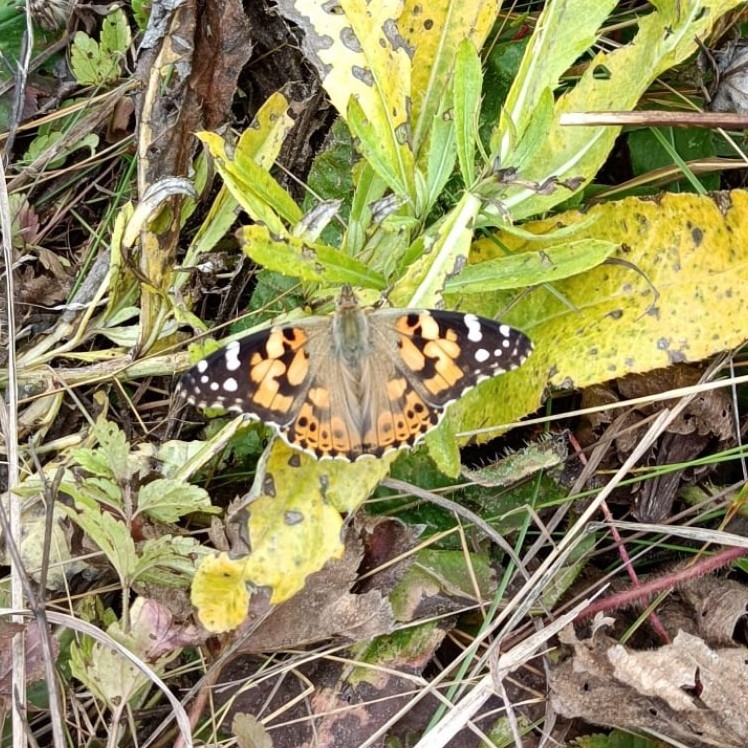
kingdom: Animalia
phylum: Arthropoda
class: Insecta
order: Lepidoptera
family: Nymphalidae
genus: Vanessa
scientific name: Vanessa cardui
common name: Painted lady
